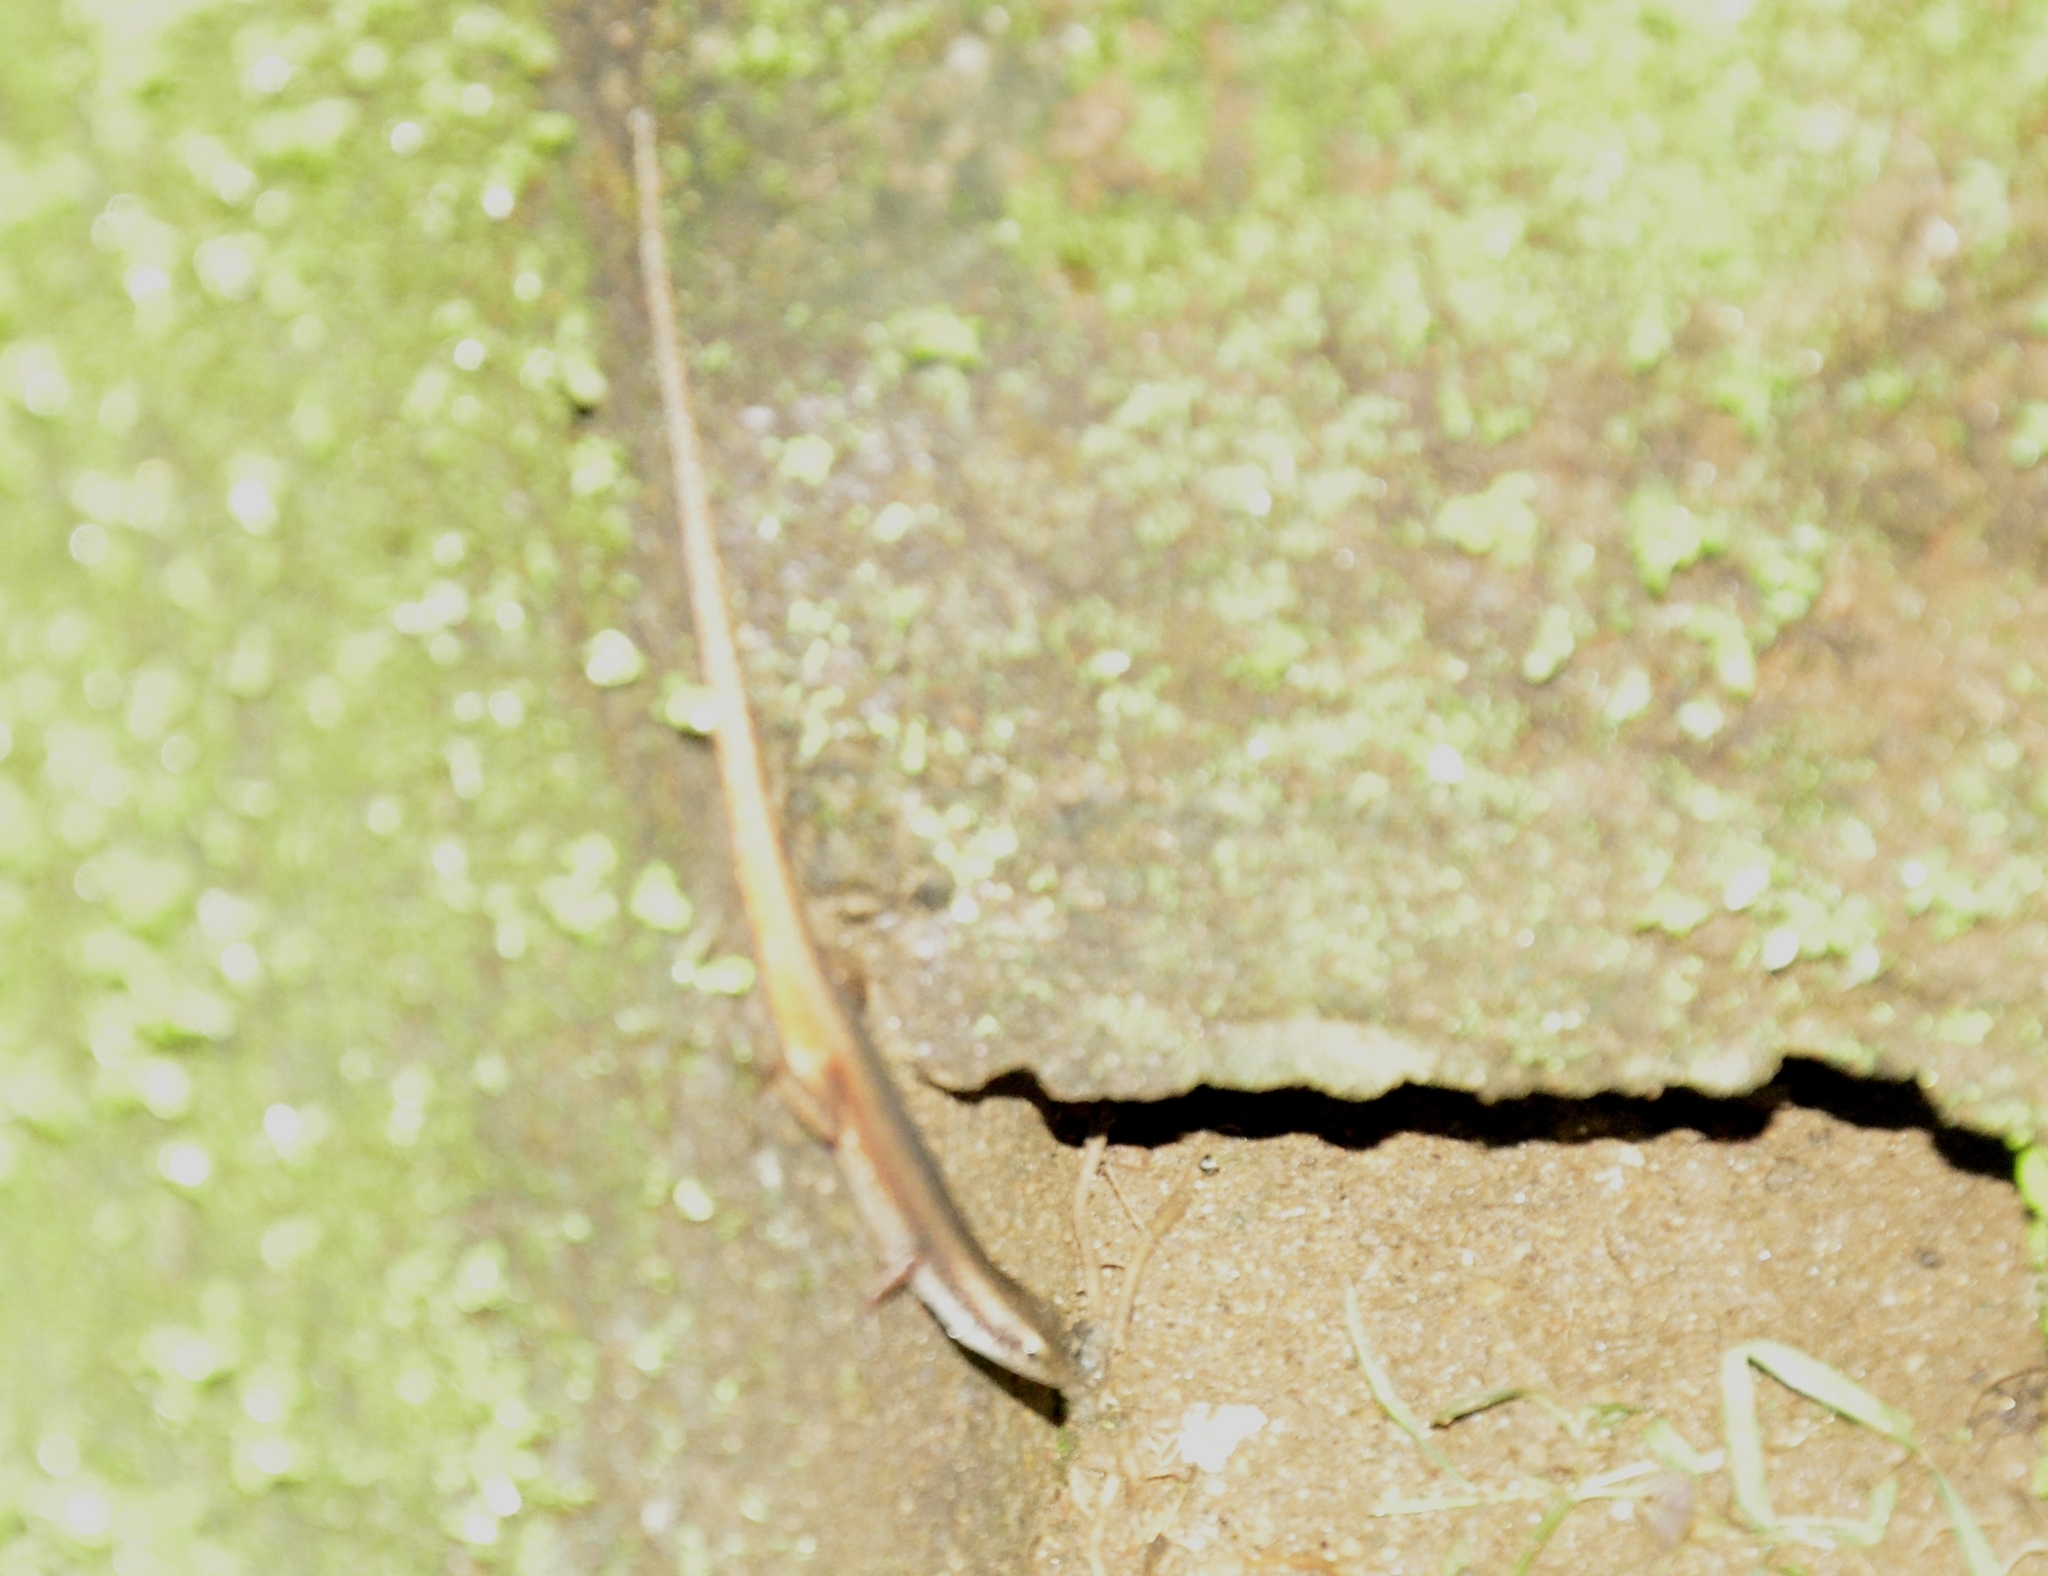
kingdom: Animalia
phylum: Chordata
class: Squamata
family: Scincidae
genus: Sphenomorphus
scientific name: Sphenomorphus dussumieri
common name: Dussumier's forest skink
